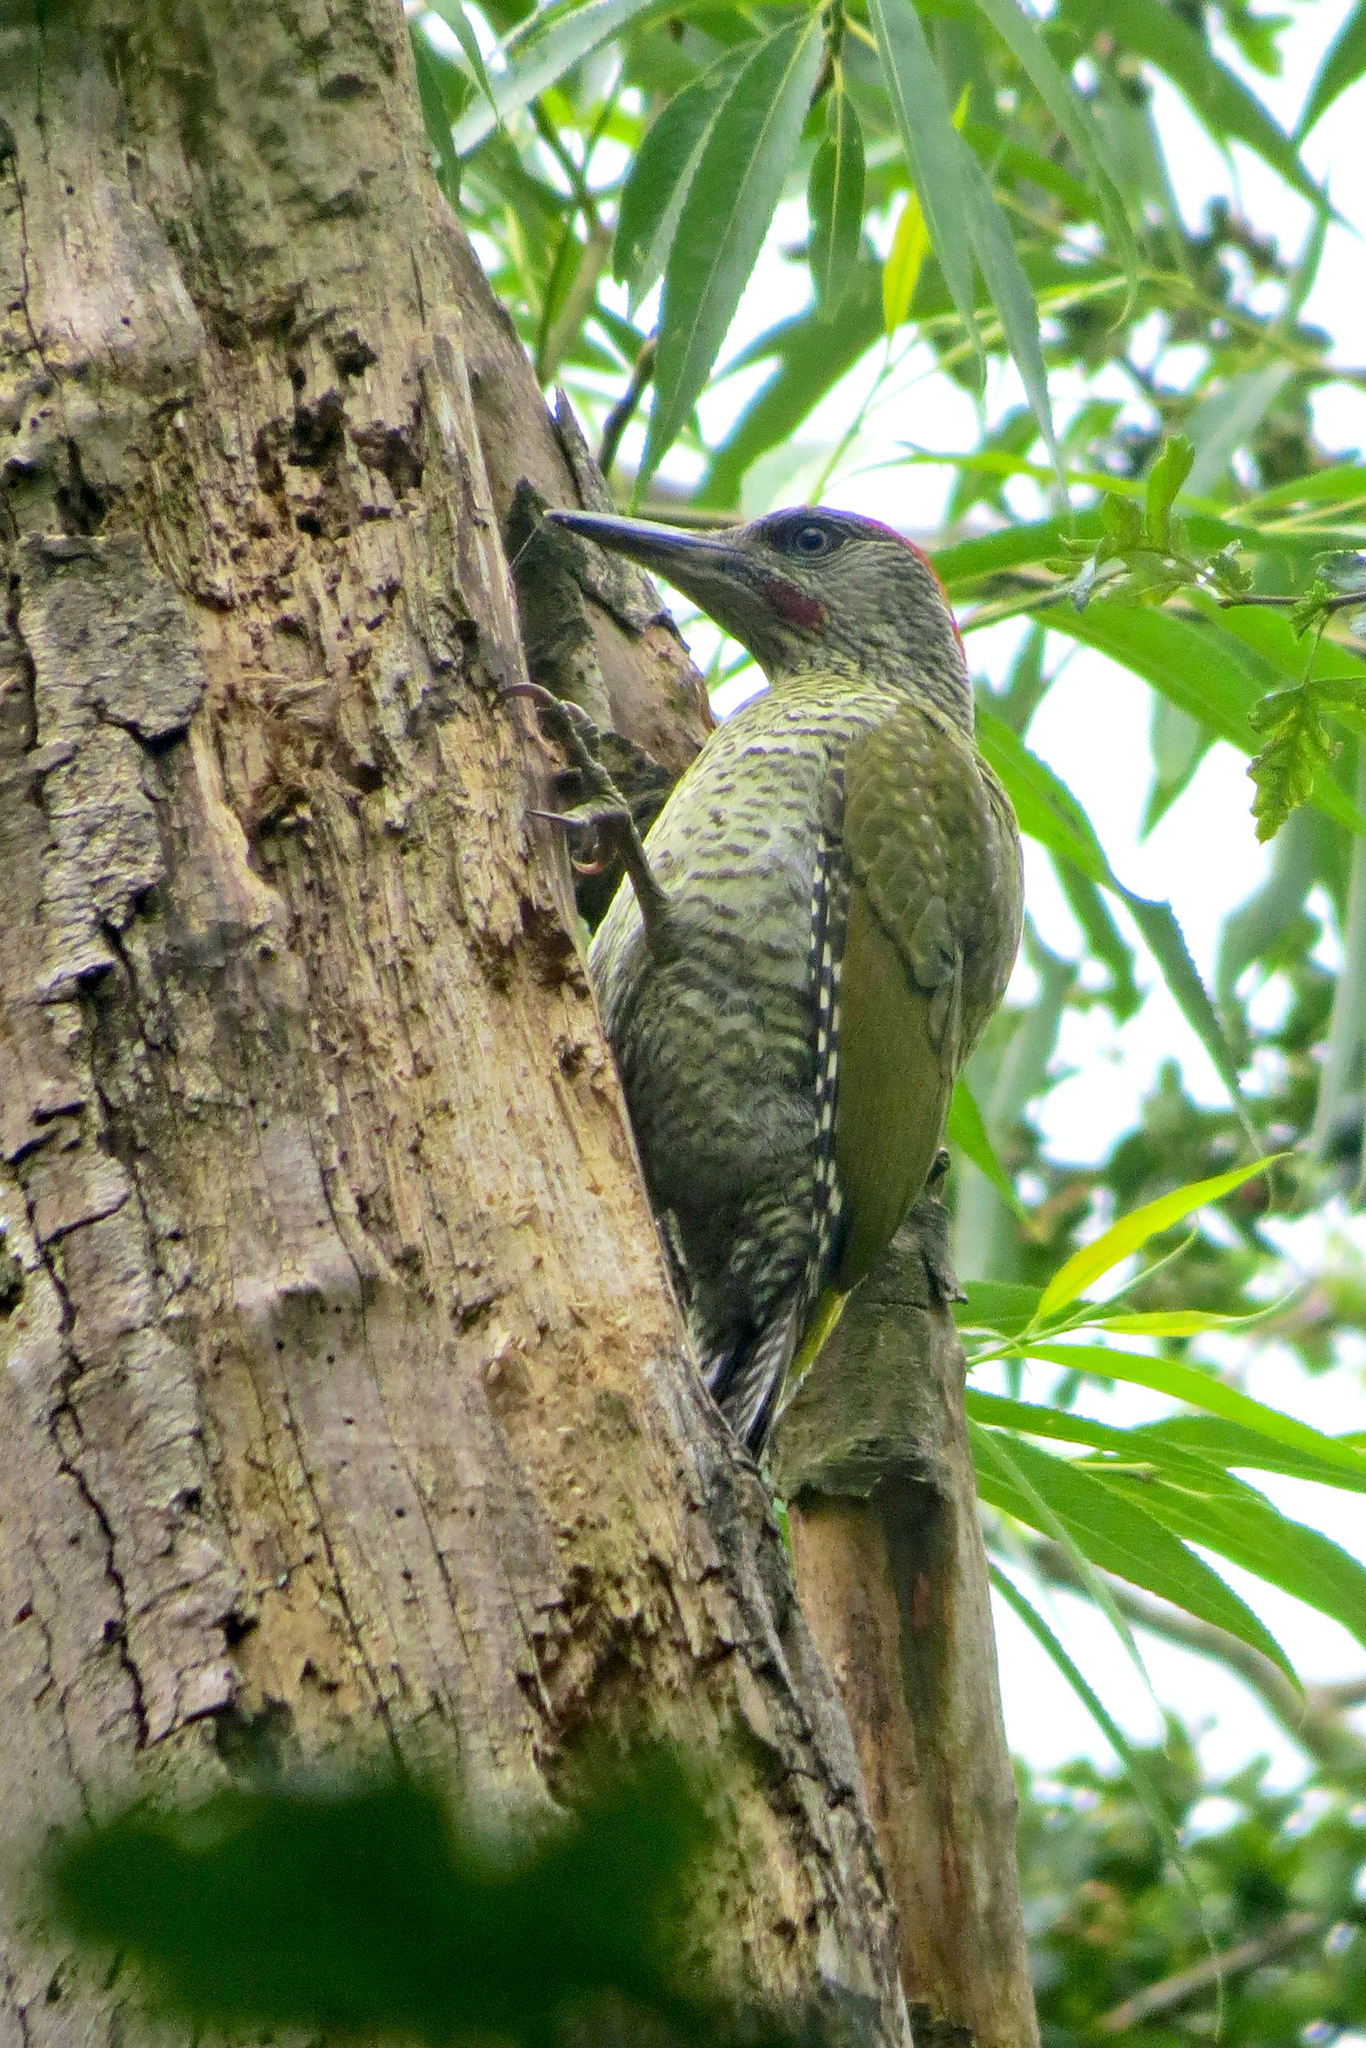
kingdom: Animalia
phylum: Chordata
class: Aves
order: Piciformes
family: Picidae
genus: Picus
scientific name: Picus viridis
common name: European green woodpecker
